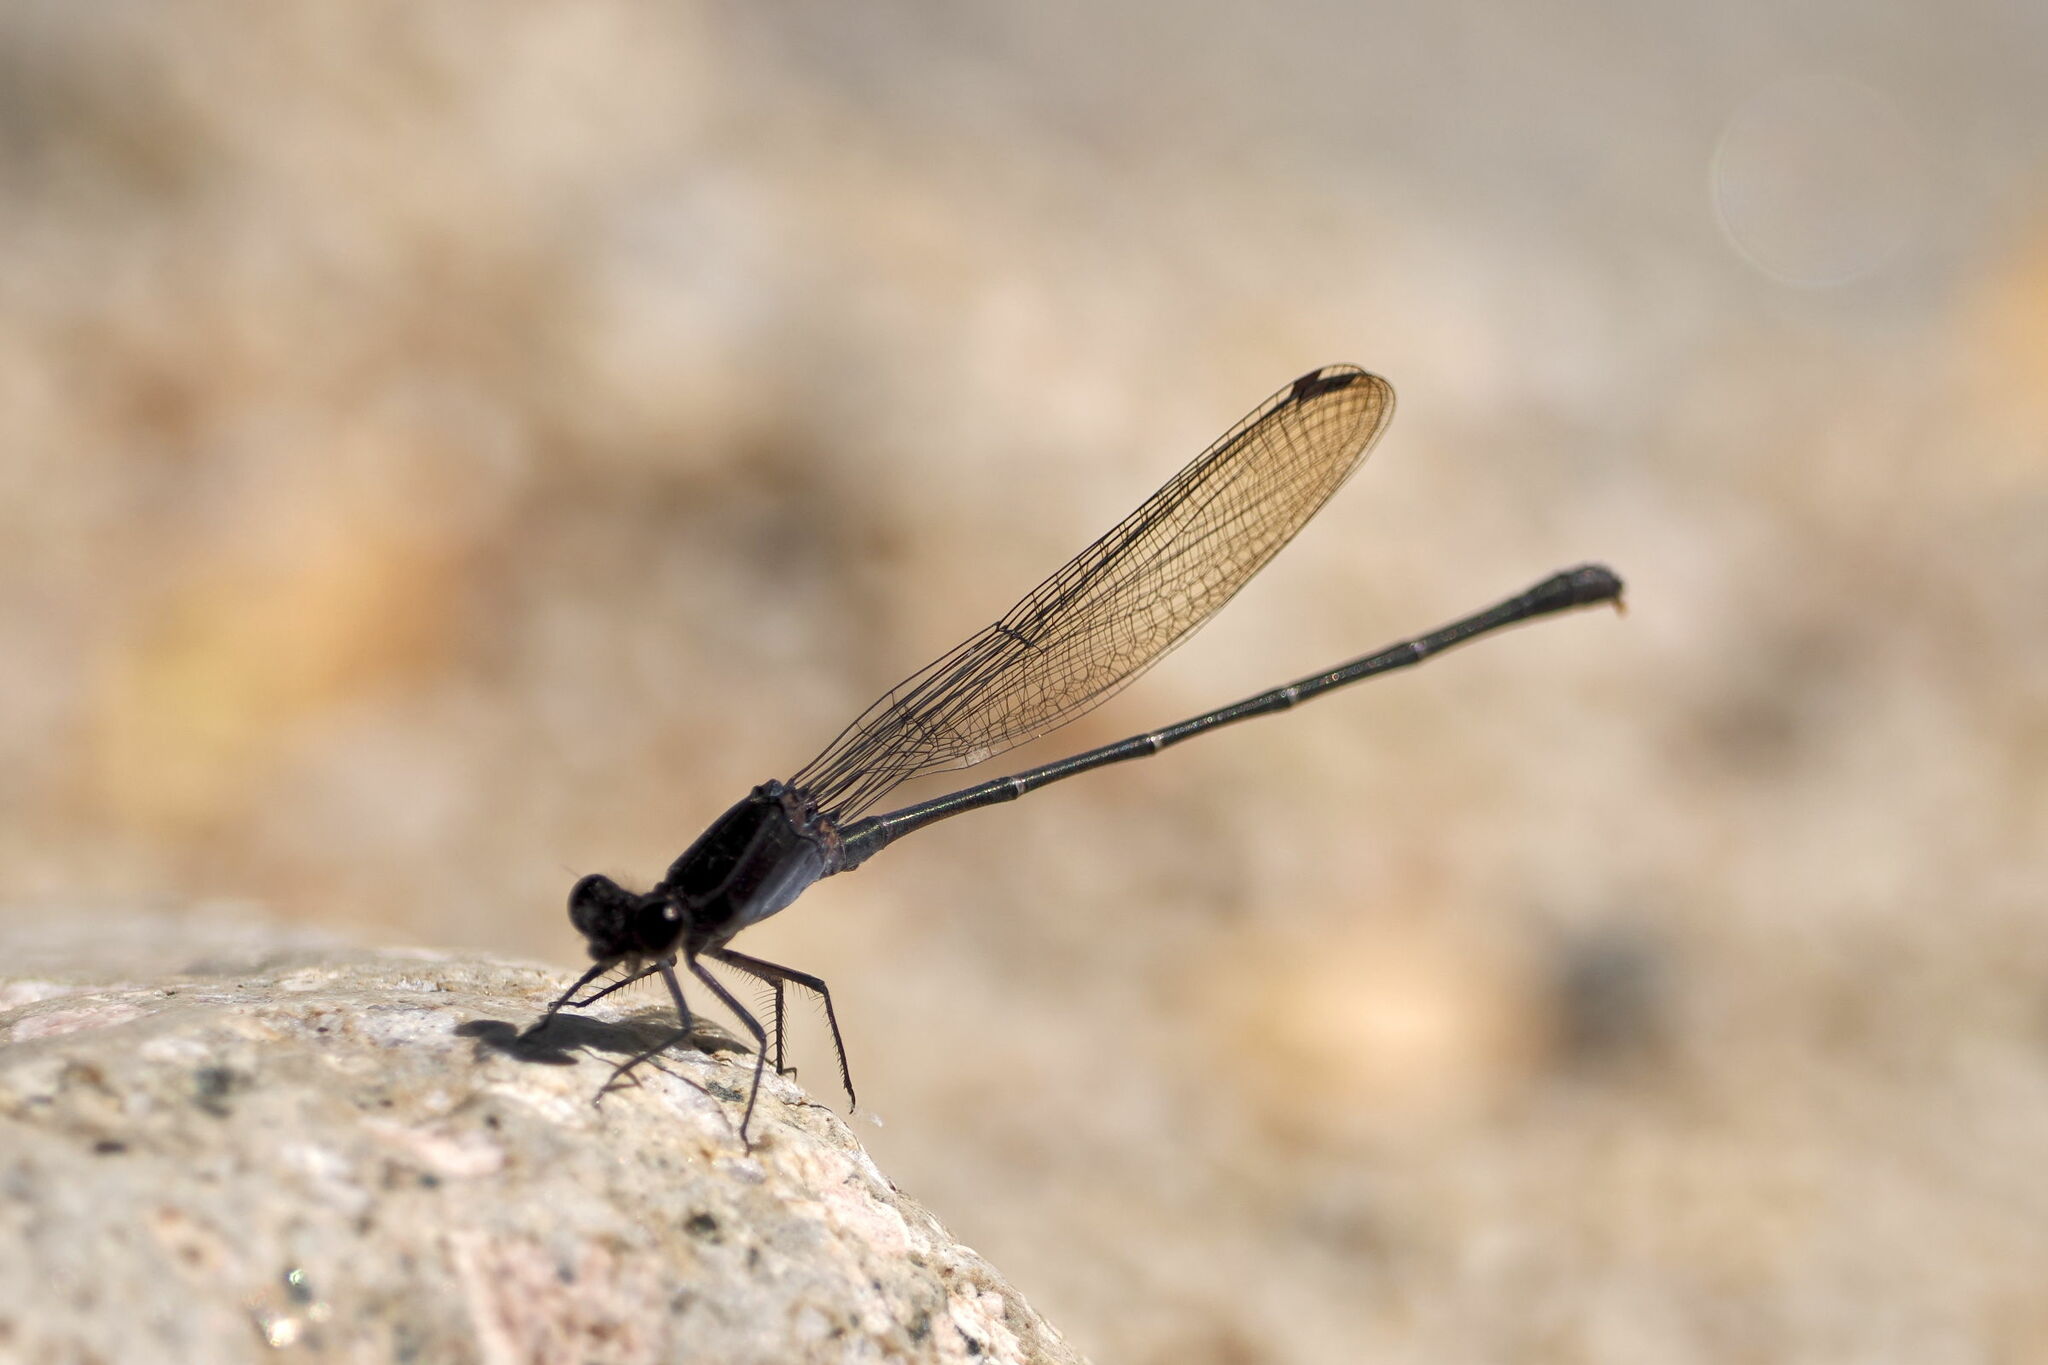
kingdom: Animalia
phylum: Arthropoda
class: Insecta
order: Odonata
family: Coenagrionidae
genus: Argia
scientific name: Argia tezpi
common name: Tezpi dancer
